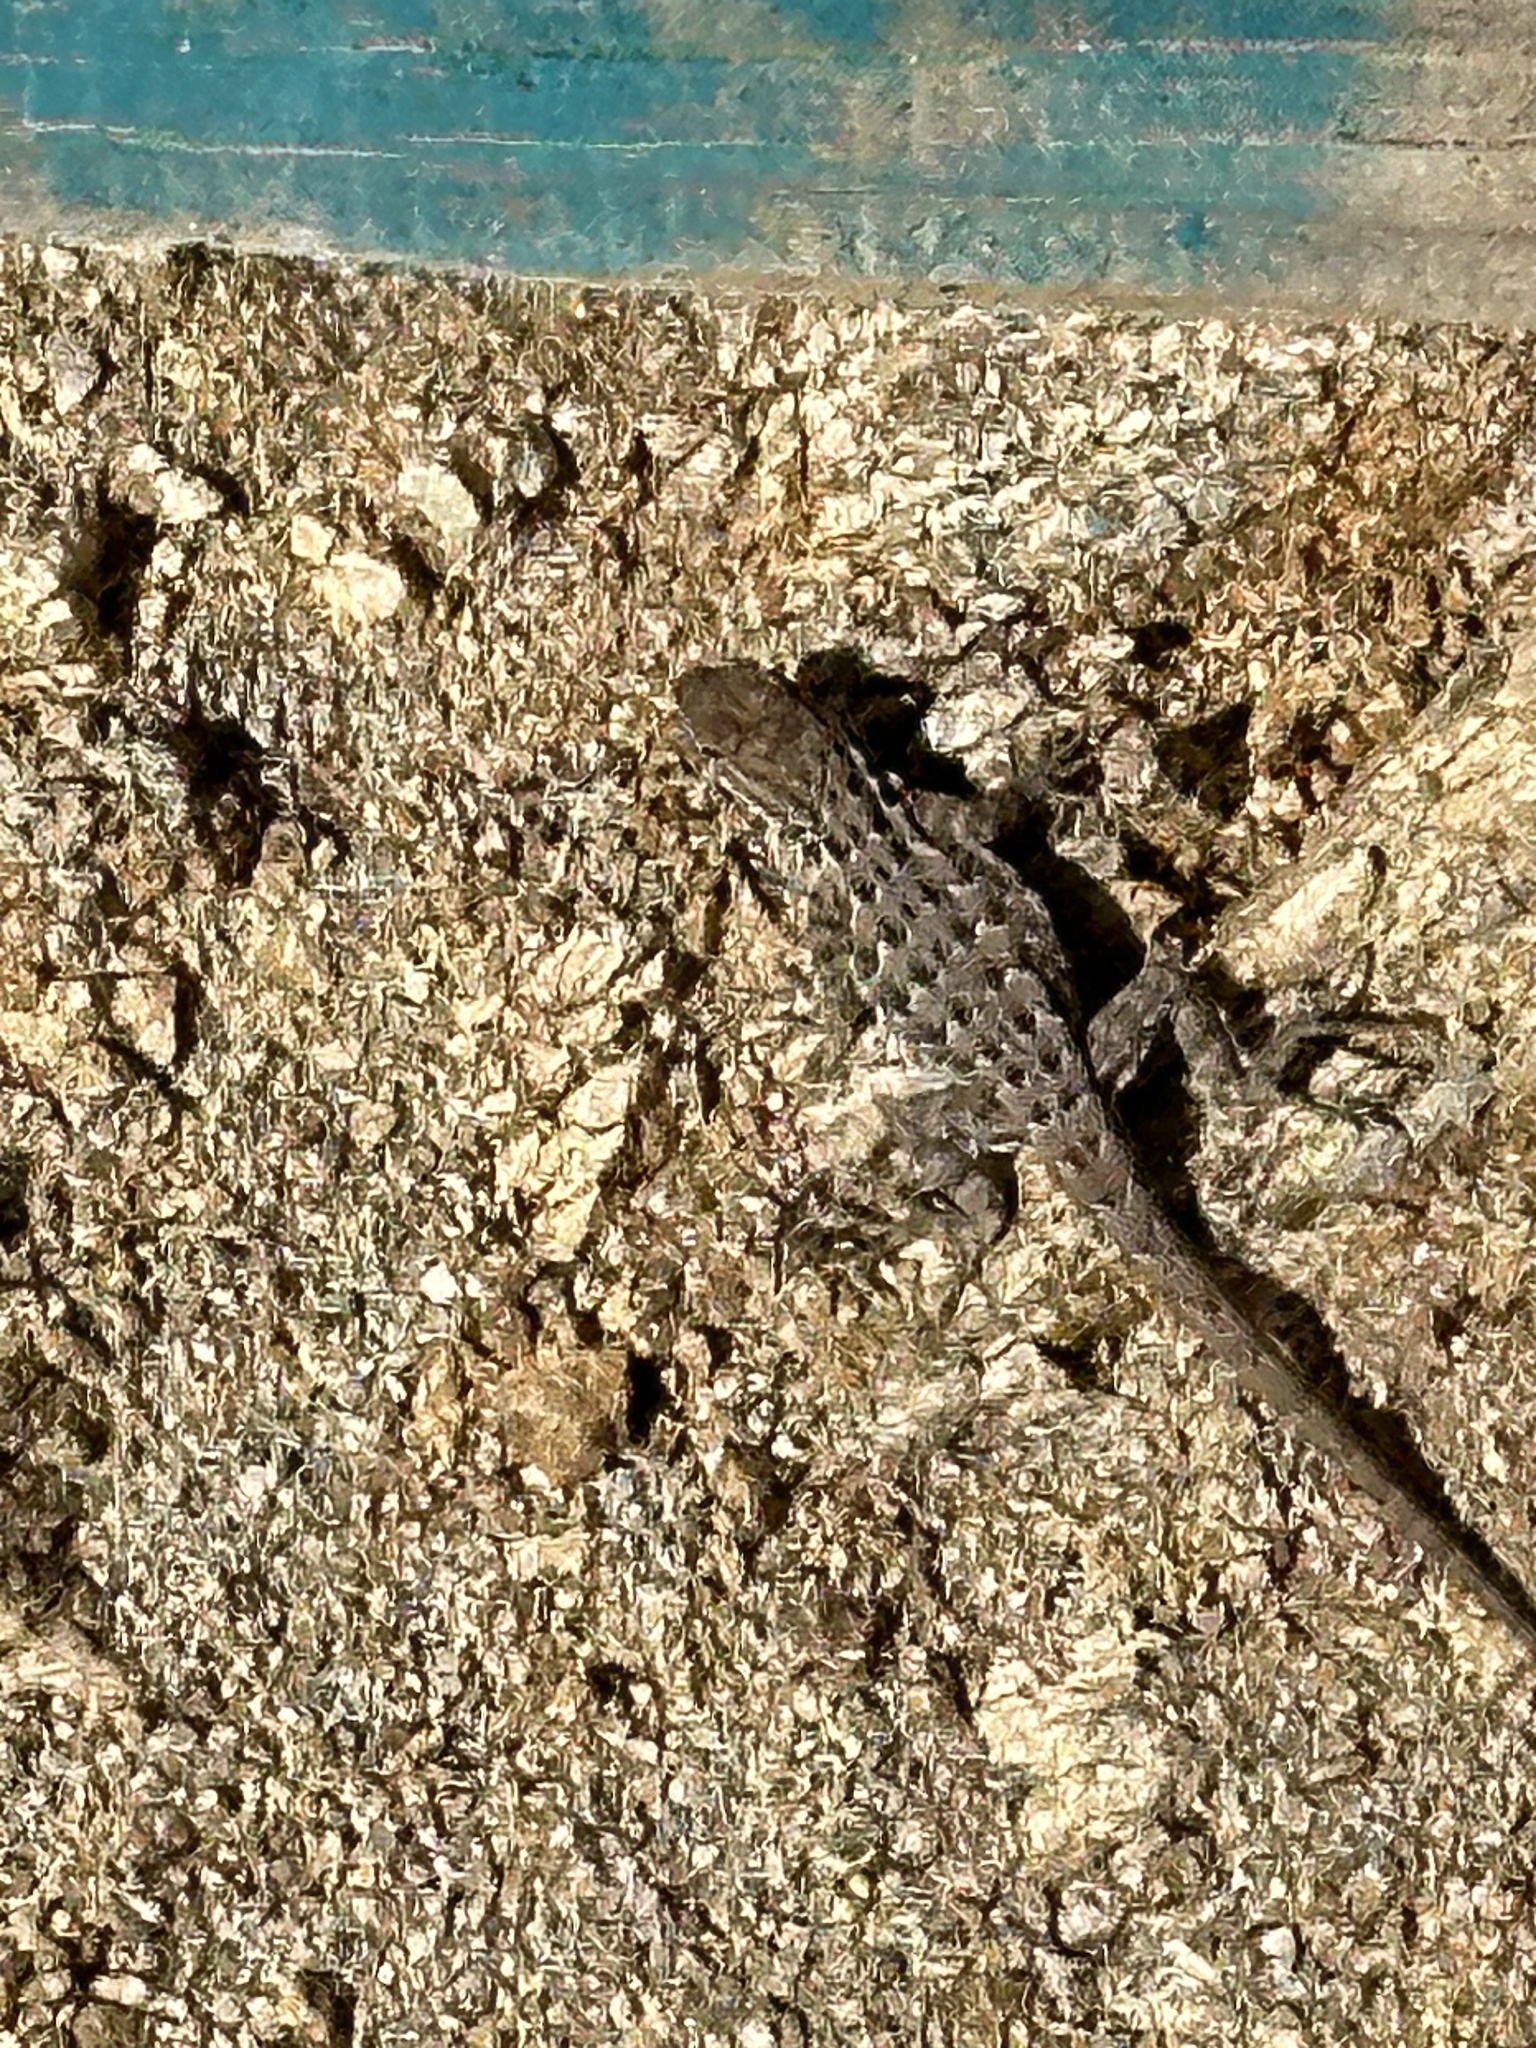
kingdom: Animalia
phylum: Chordata
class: Squamata
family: Phrynosomatidae
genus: Sceloporus
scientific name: Sceloporus occidentalis
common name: Western fence lizard
